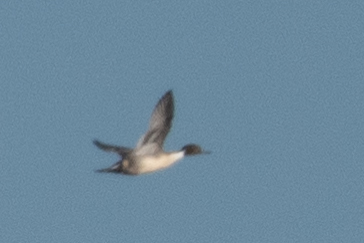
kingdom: Animalia
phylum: Chordata
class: Aves
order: Anseriformes
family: Anatidae
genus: Anas
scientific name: Anas acuta
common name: Northern pintail
